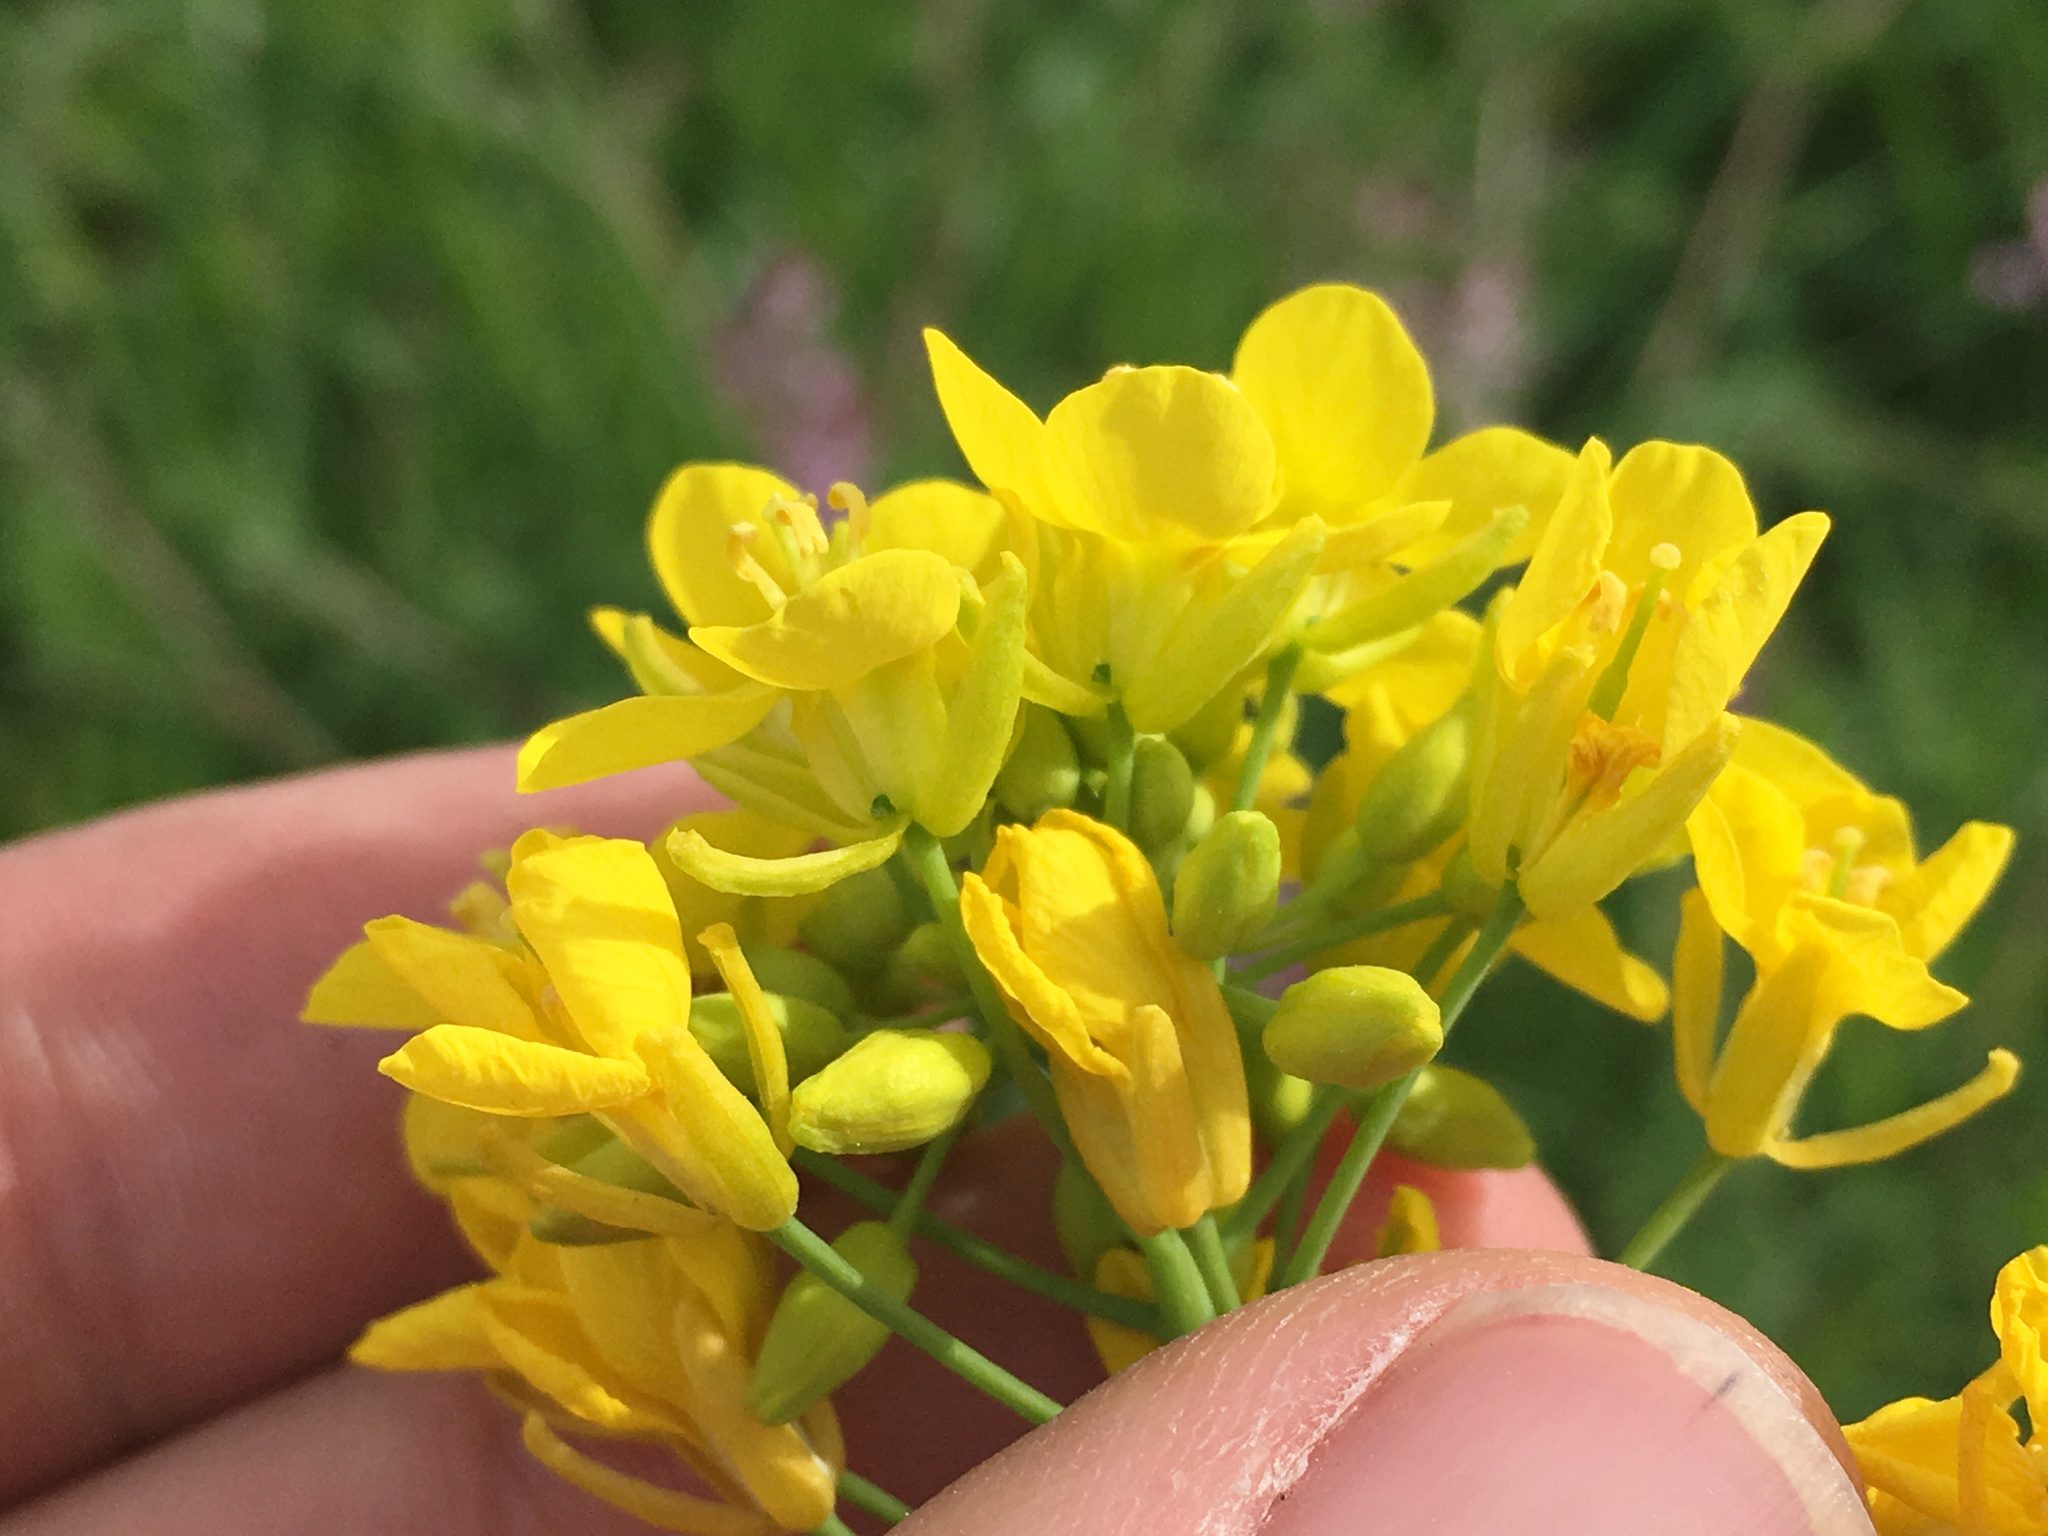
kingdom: Plantae
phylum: Tracheophyta
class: Magnoliopsida
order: Brassicales
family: Brassicaceae
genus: Brassica
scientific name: Brassica rapa
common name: Field mustard
